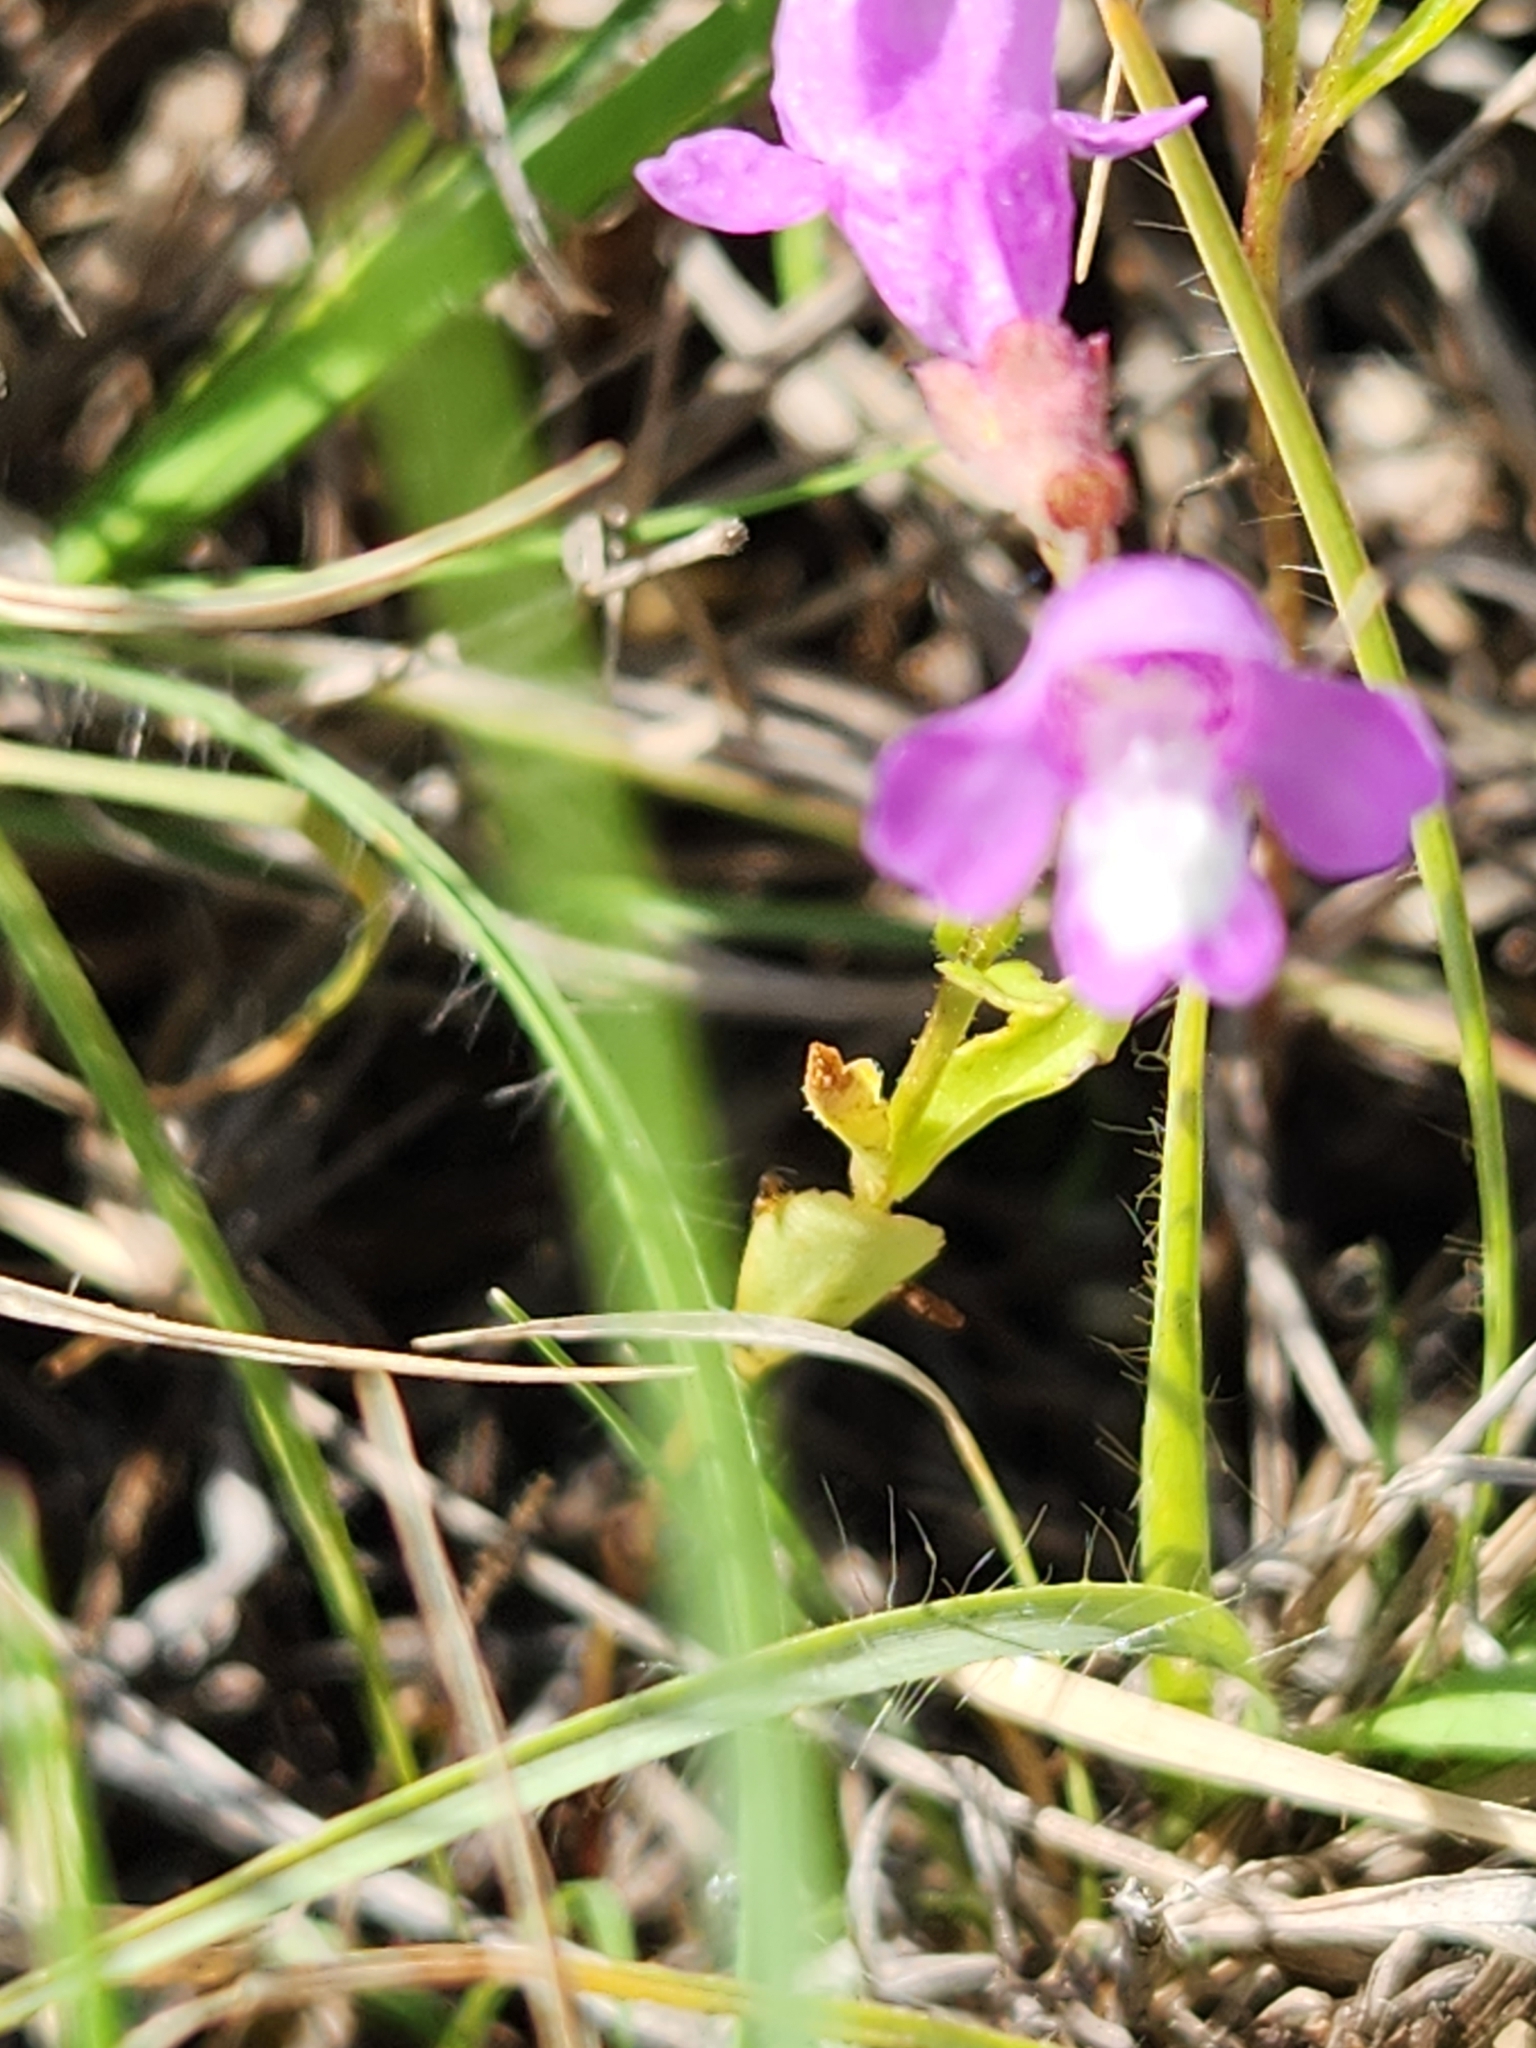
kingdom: Plantae
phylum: Tracheophyta
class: Magnoliopsida
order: Lamiales
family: Lamiaceae
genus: Warnockia
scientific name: Warnockia scutellarioides
